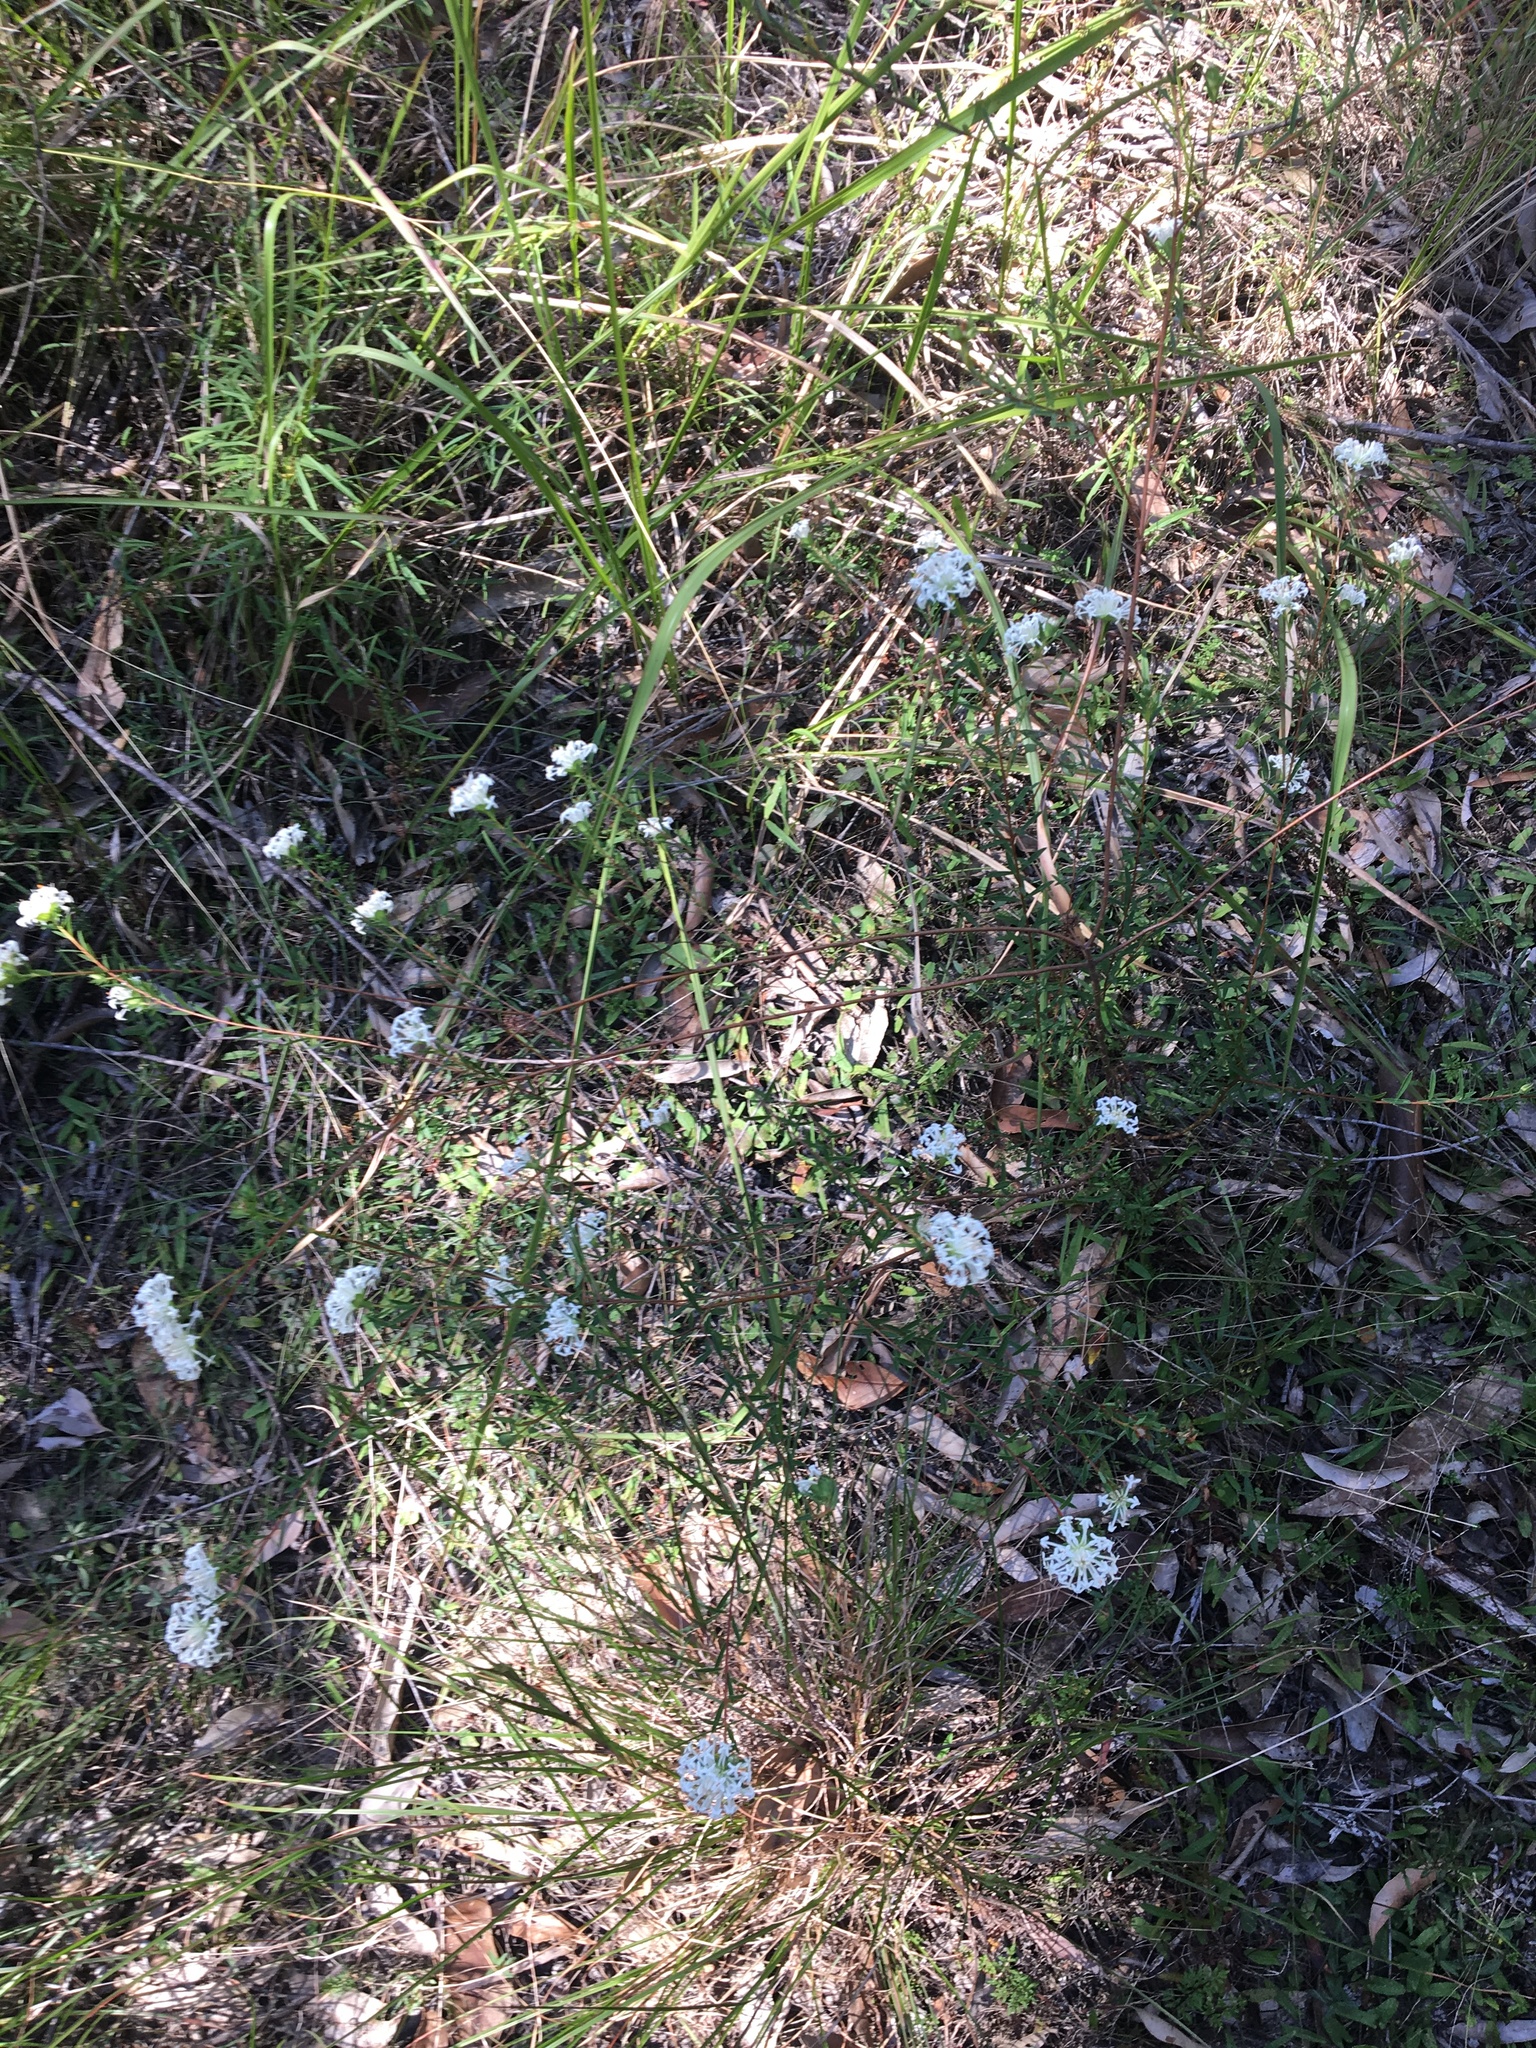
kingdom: Plantae
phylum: Tracheophyta
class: Magnoliopsida
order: Malvales
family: Thymelaeaceae
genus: Pimelea
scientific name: Pimelea linifolia
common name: Queen-of-the-bush
